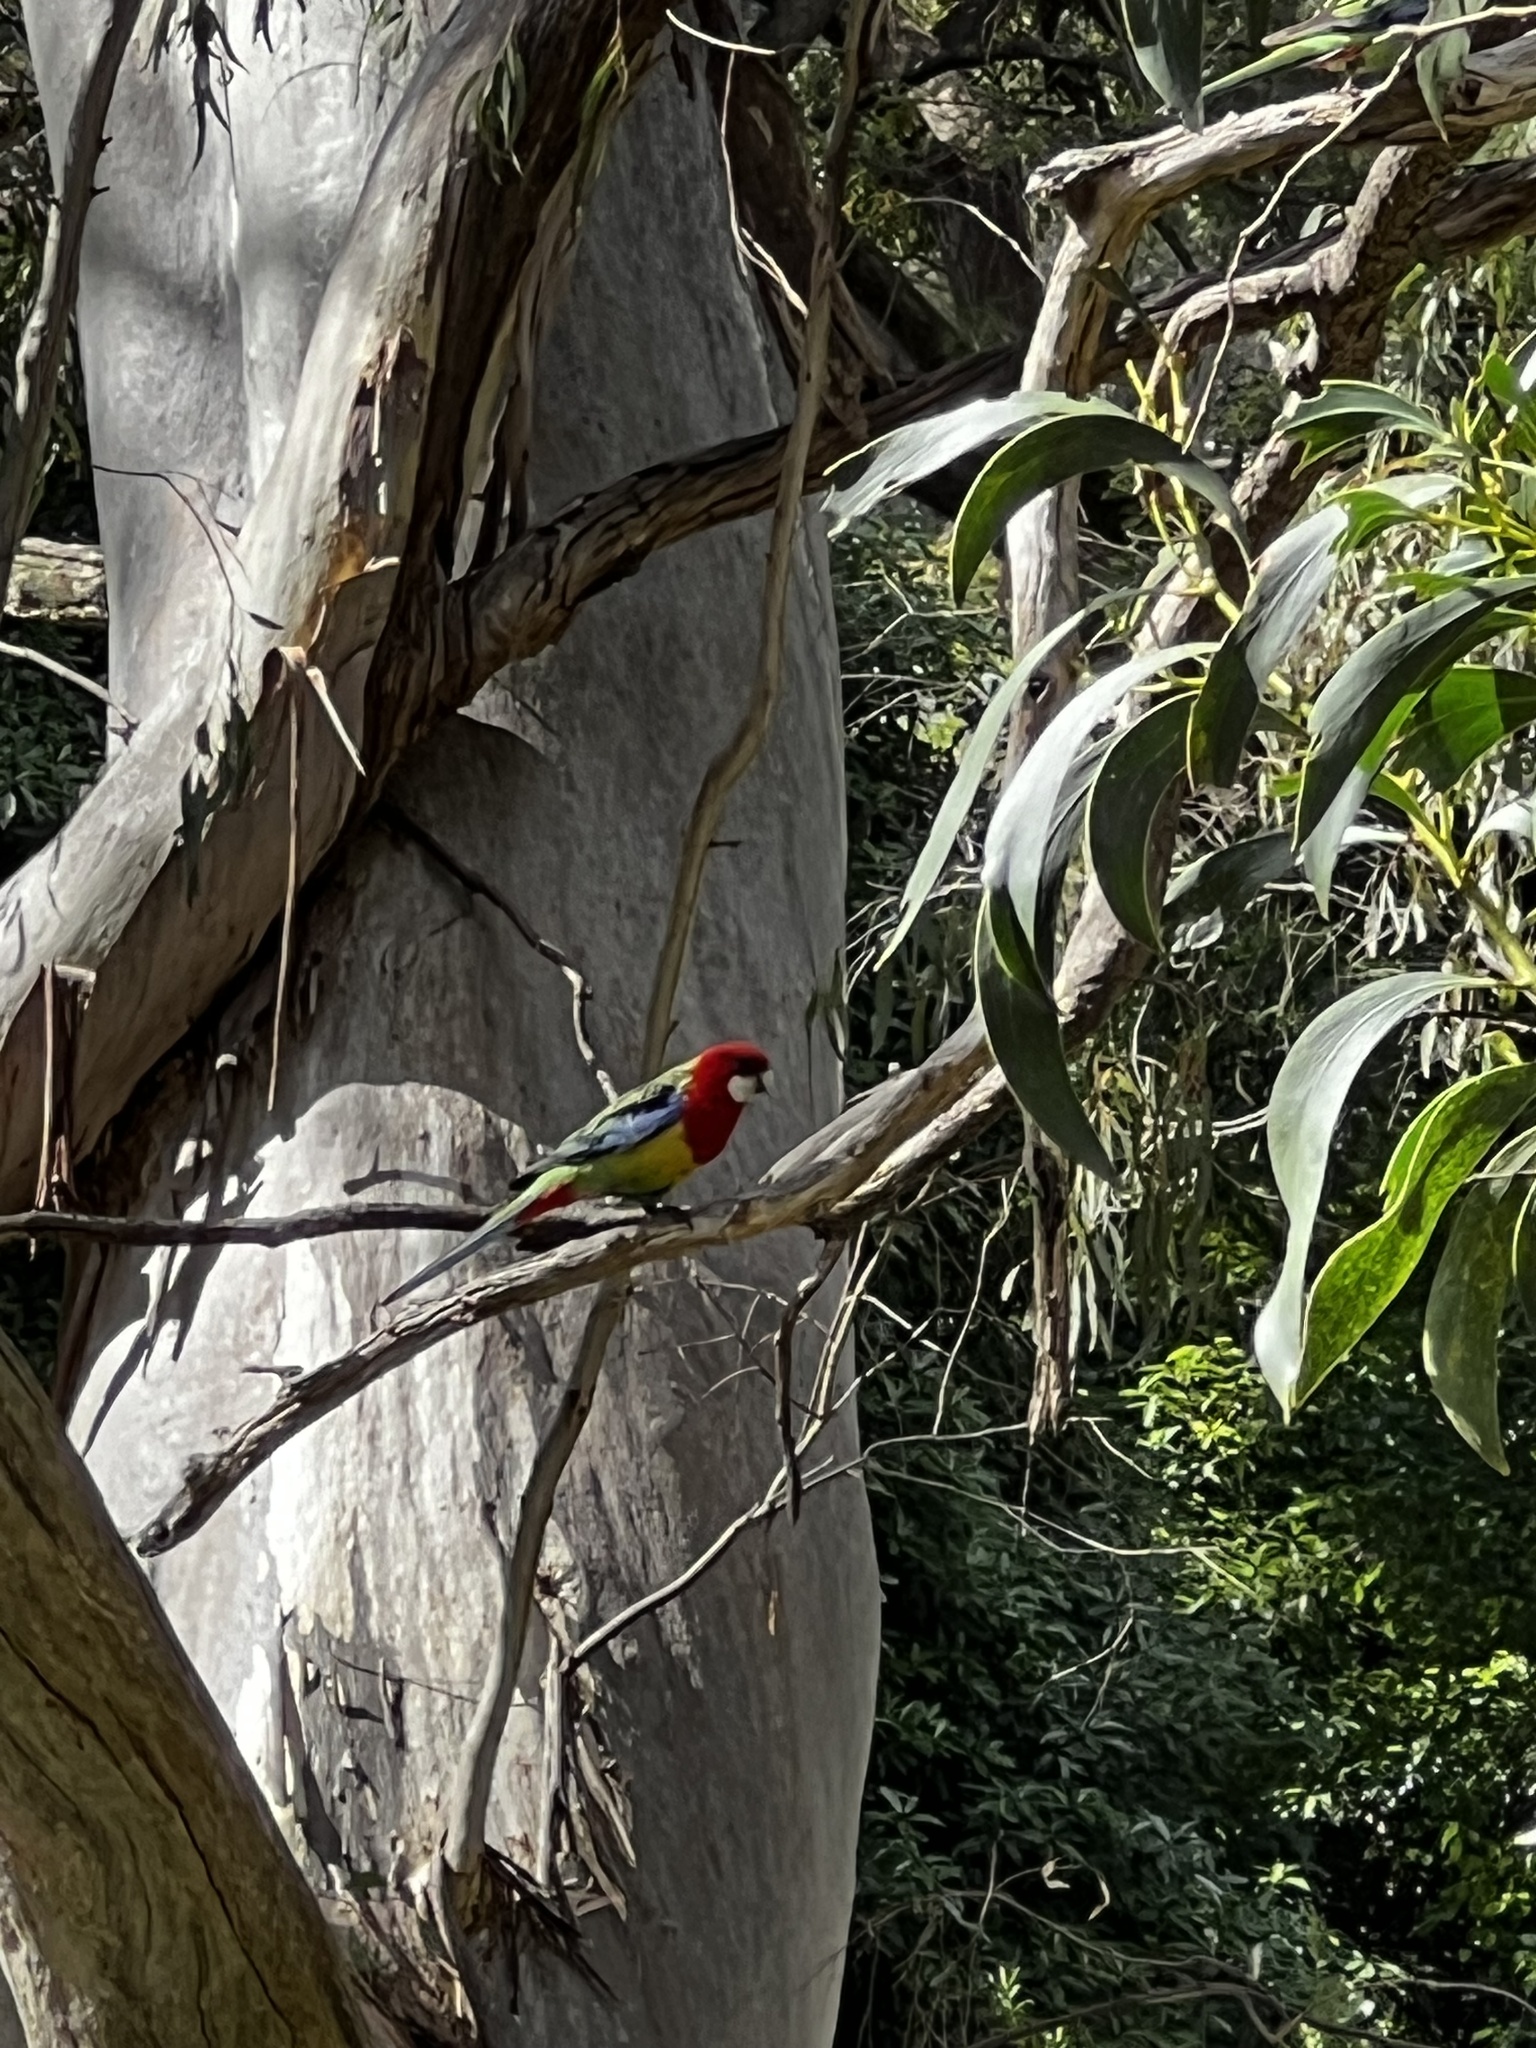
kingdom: Animalia
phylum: Chordata
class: Aves
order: Psittaciformes
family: Psittacidae
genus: Platycercus
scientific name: Platycercus eximius
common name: Eastern rosella
